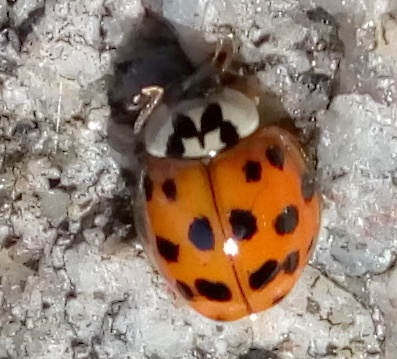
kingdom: Animalia
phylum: Arthropoda
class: Insecta
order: Coleoptera
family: Coccinellidae
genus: Harmonia
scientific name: Harmonia axyridis
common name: Harlequin ladybird
